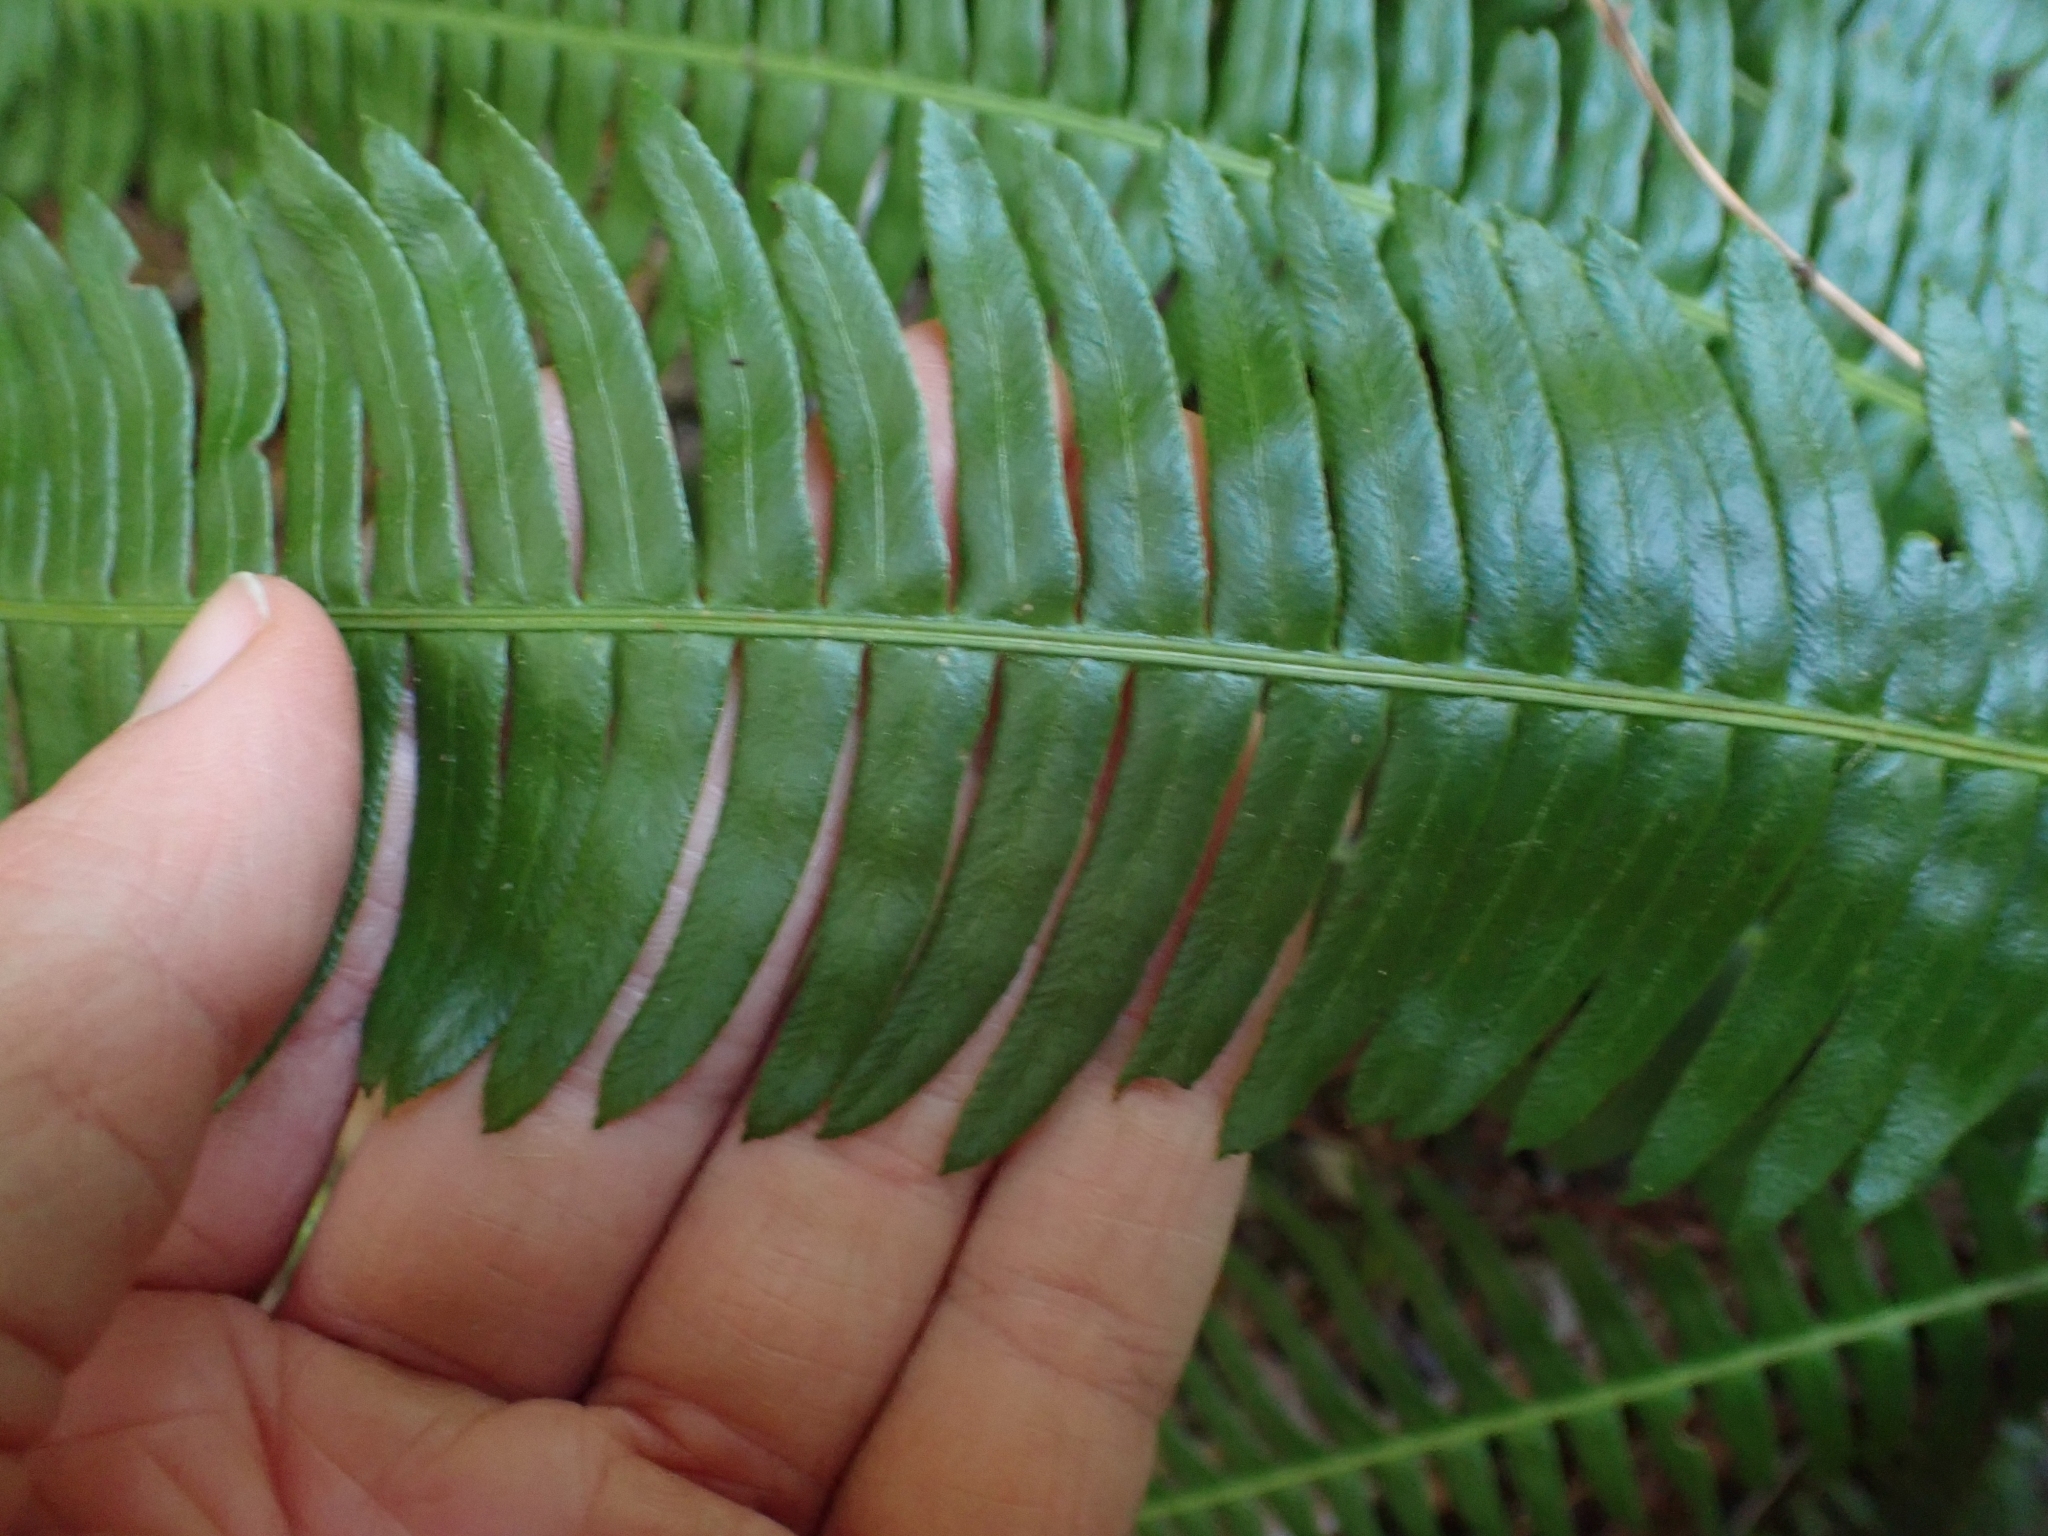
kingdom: Plantae
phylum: Tracheophyta
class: Polypodiopsida
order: Polypodiales
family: Blechnaceae
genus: Struthiopteris
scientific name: Struthiopteris spicant
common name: Deer fern
